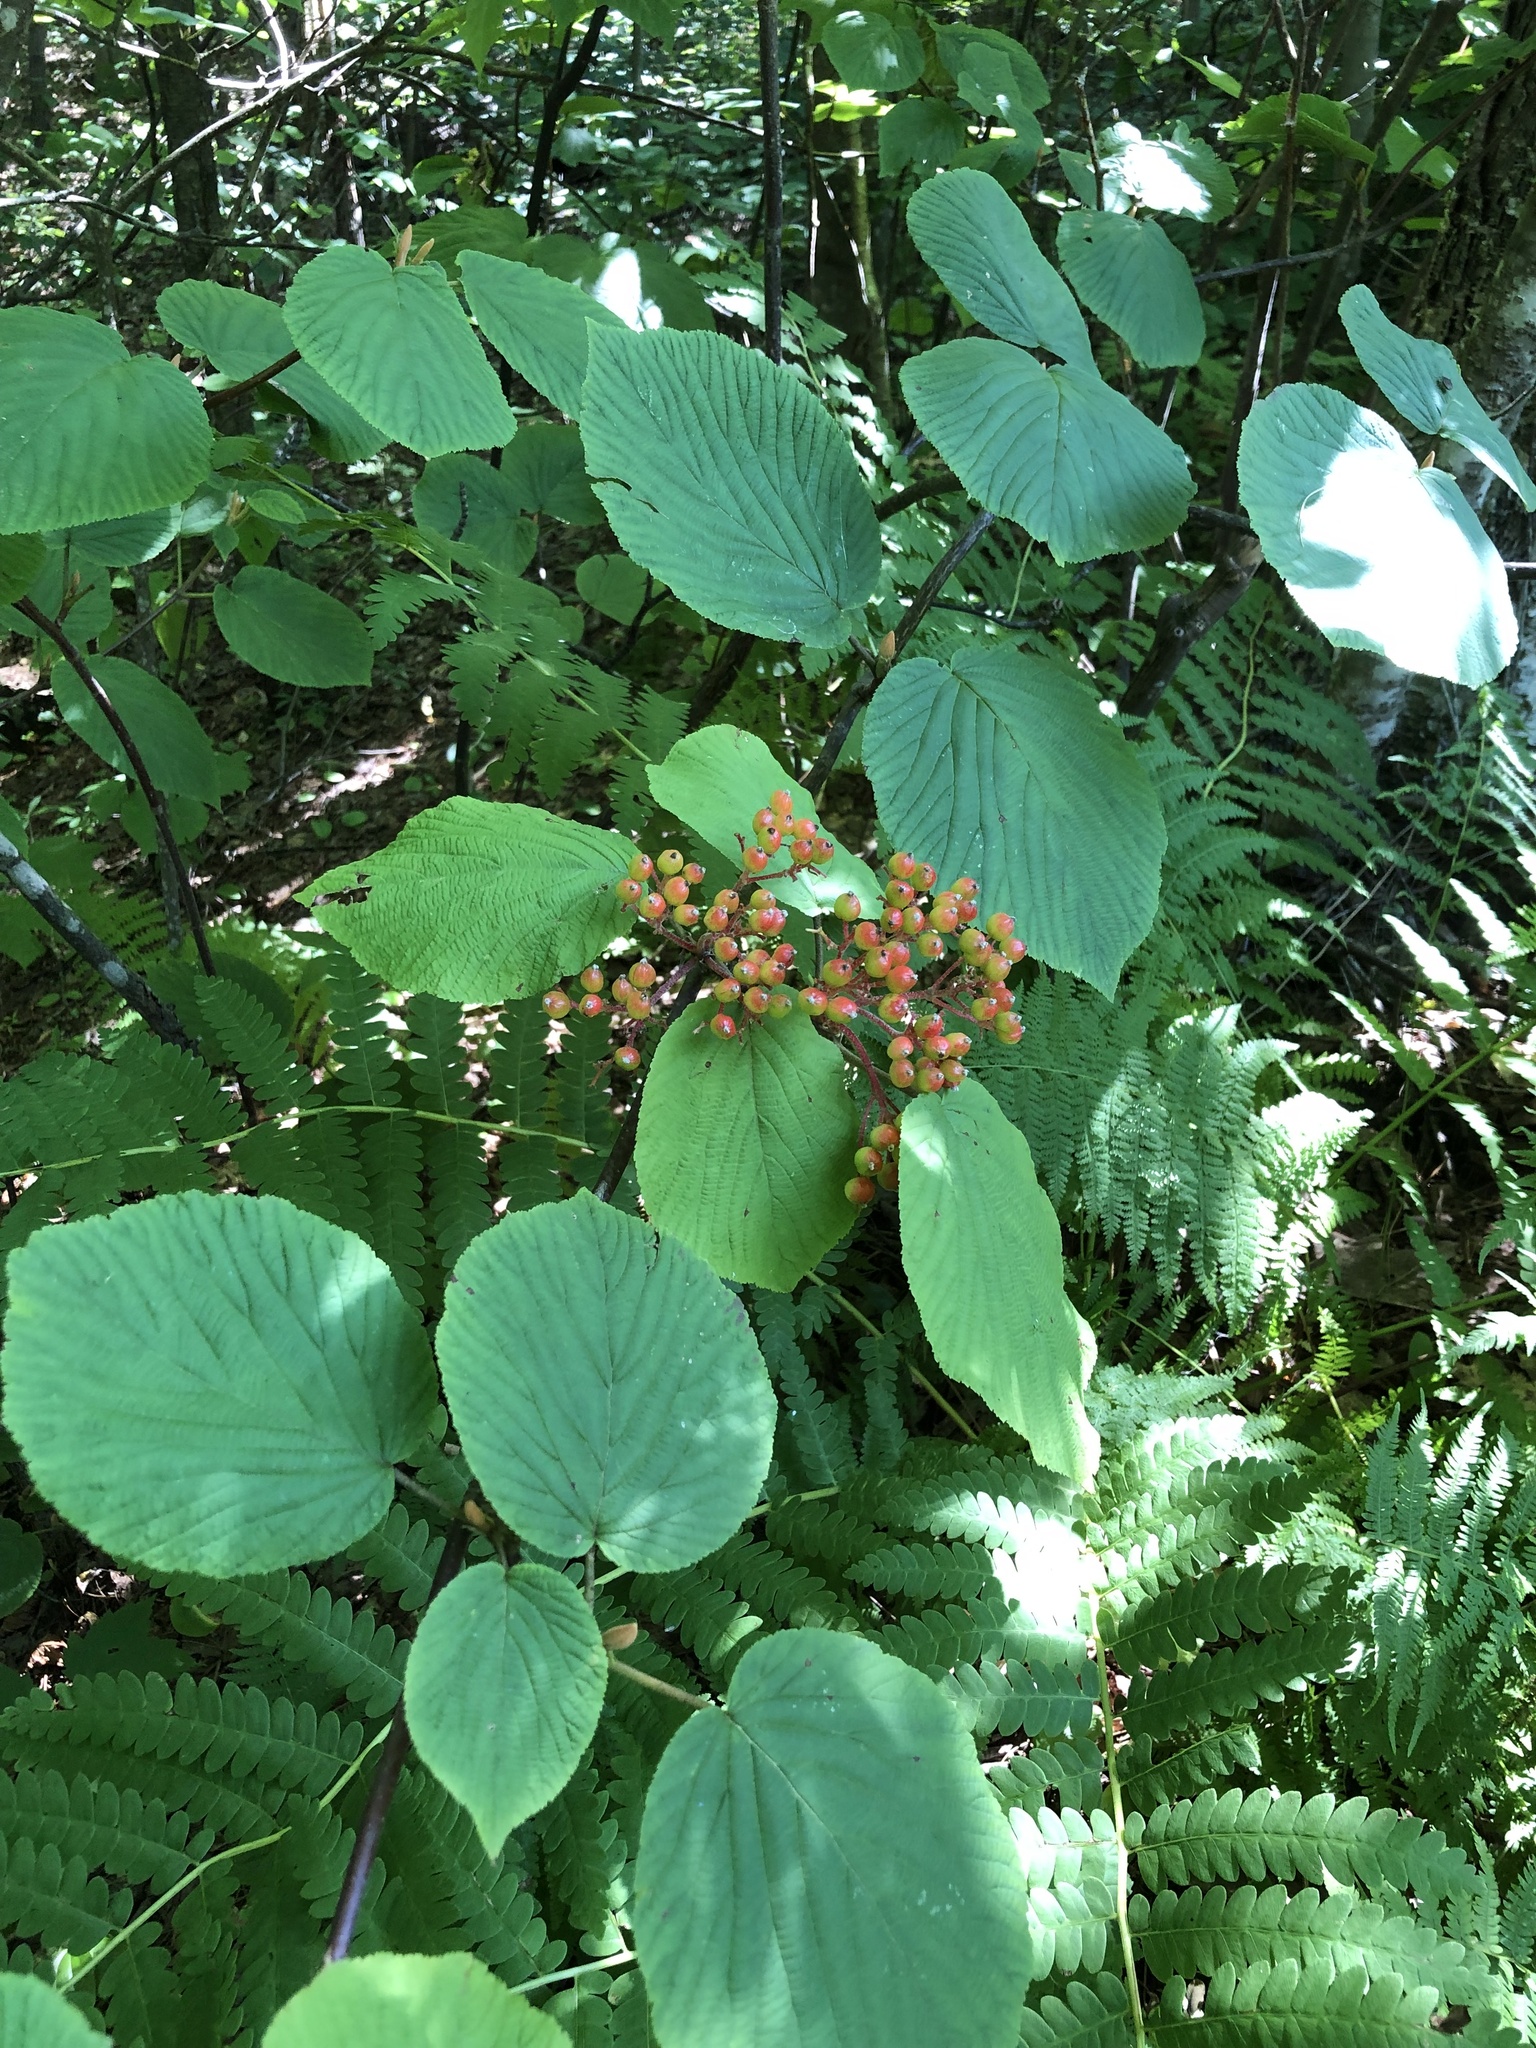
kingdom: Plantae
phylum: Tracheophyta
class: Magnoliopsida
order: Dipsacales
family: Viburnaceae
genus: Viburnum
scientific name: Viburnum lantanoides
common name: Hobblebush
